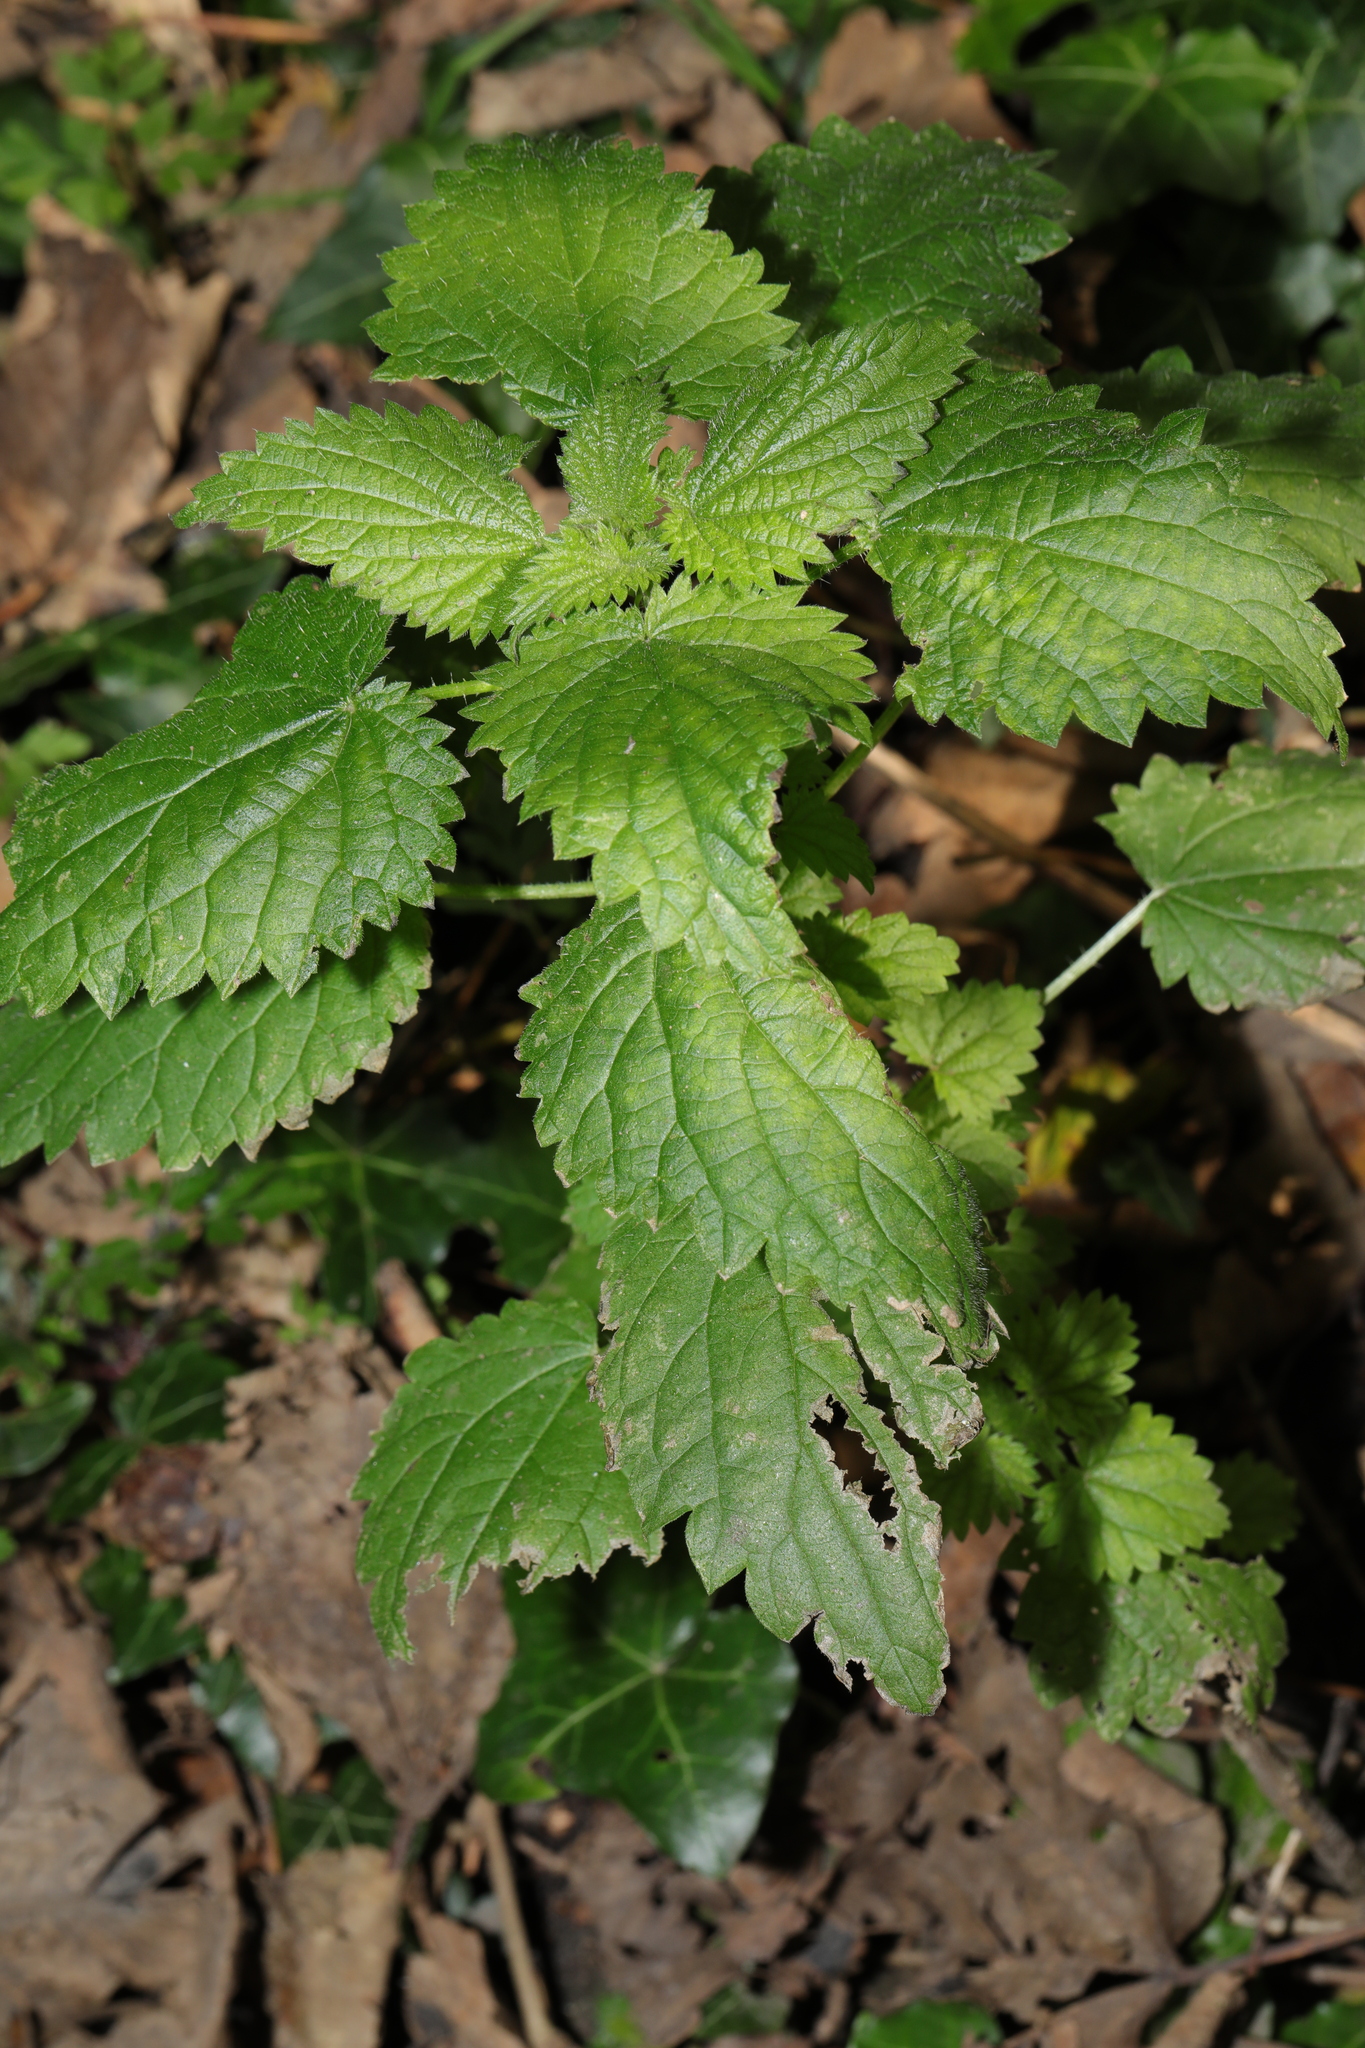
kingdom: Plantae
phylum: Tracheophyta
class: Magnoliopsida
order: Rosales
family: Urticaceae
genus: Urtica
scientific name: Urtica dioica
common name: Common nettle
